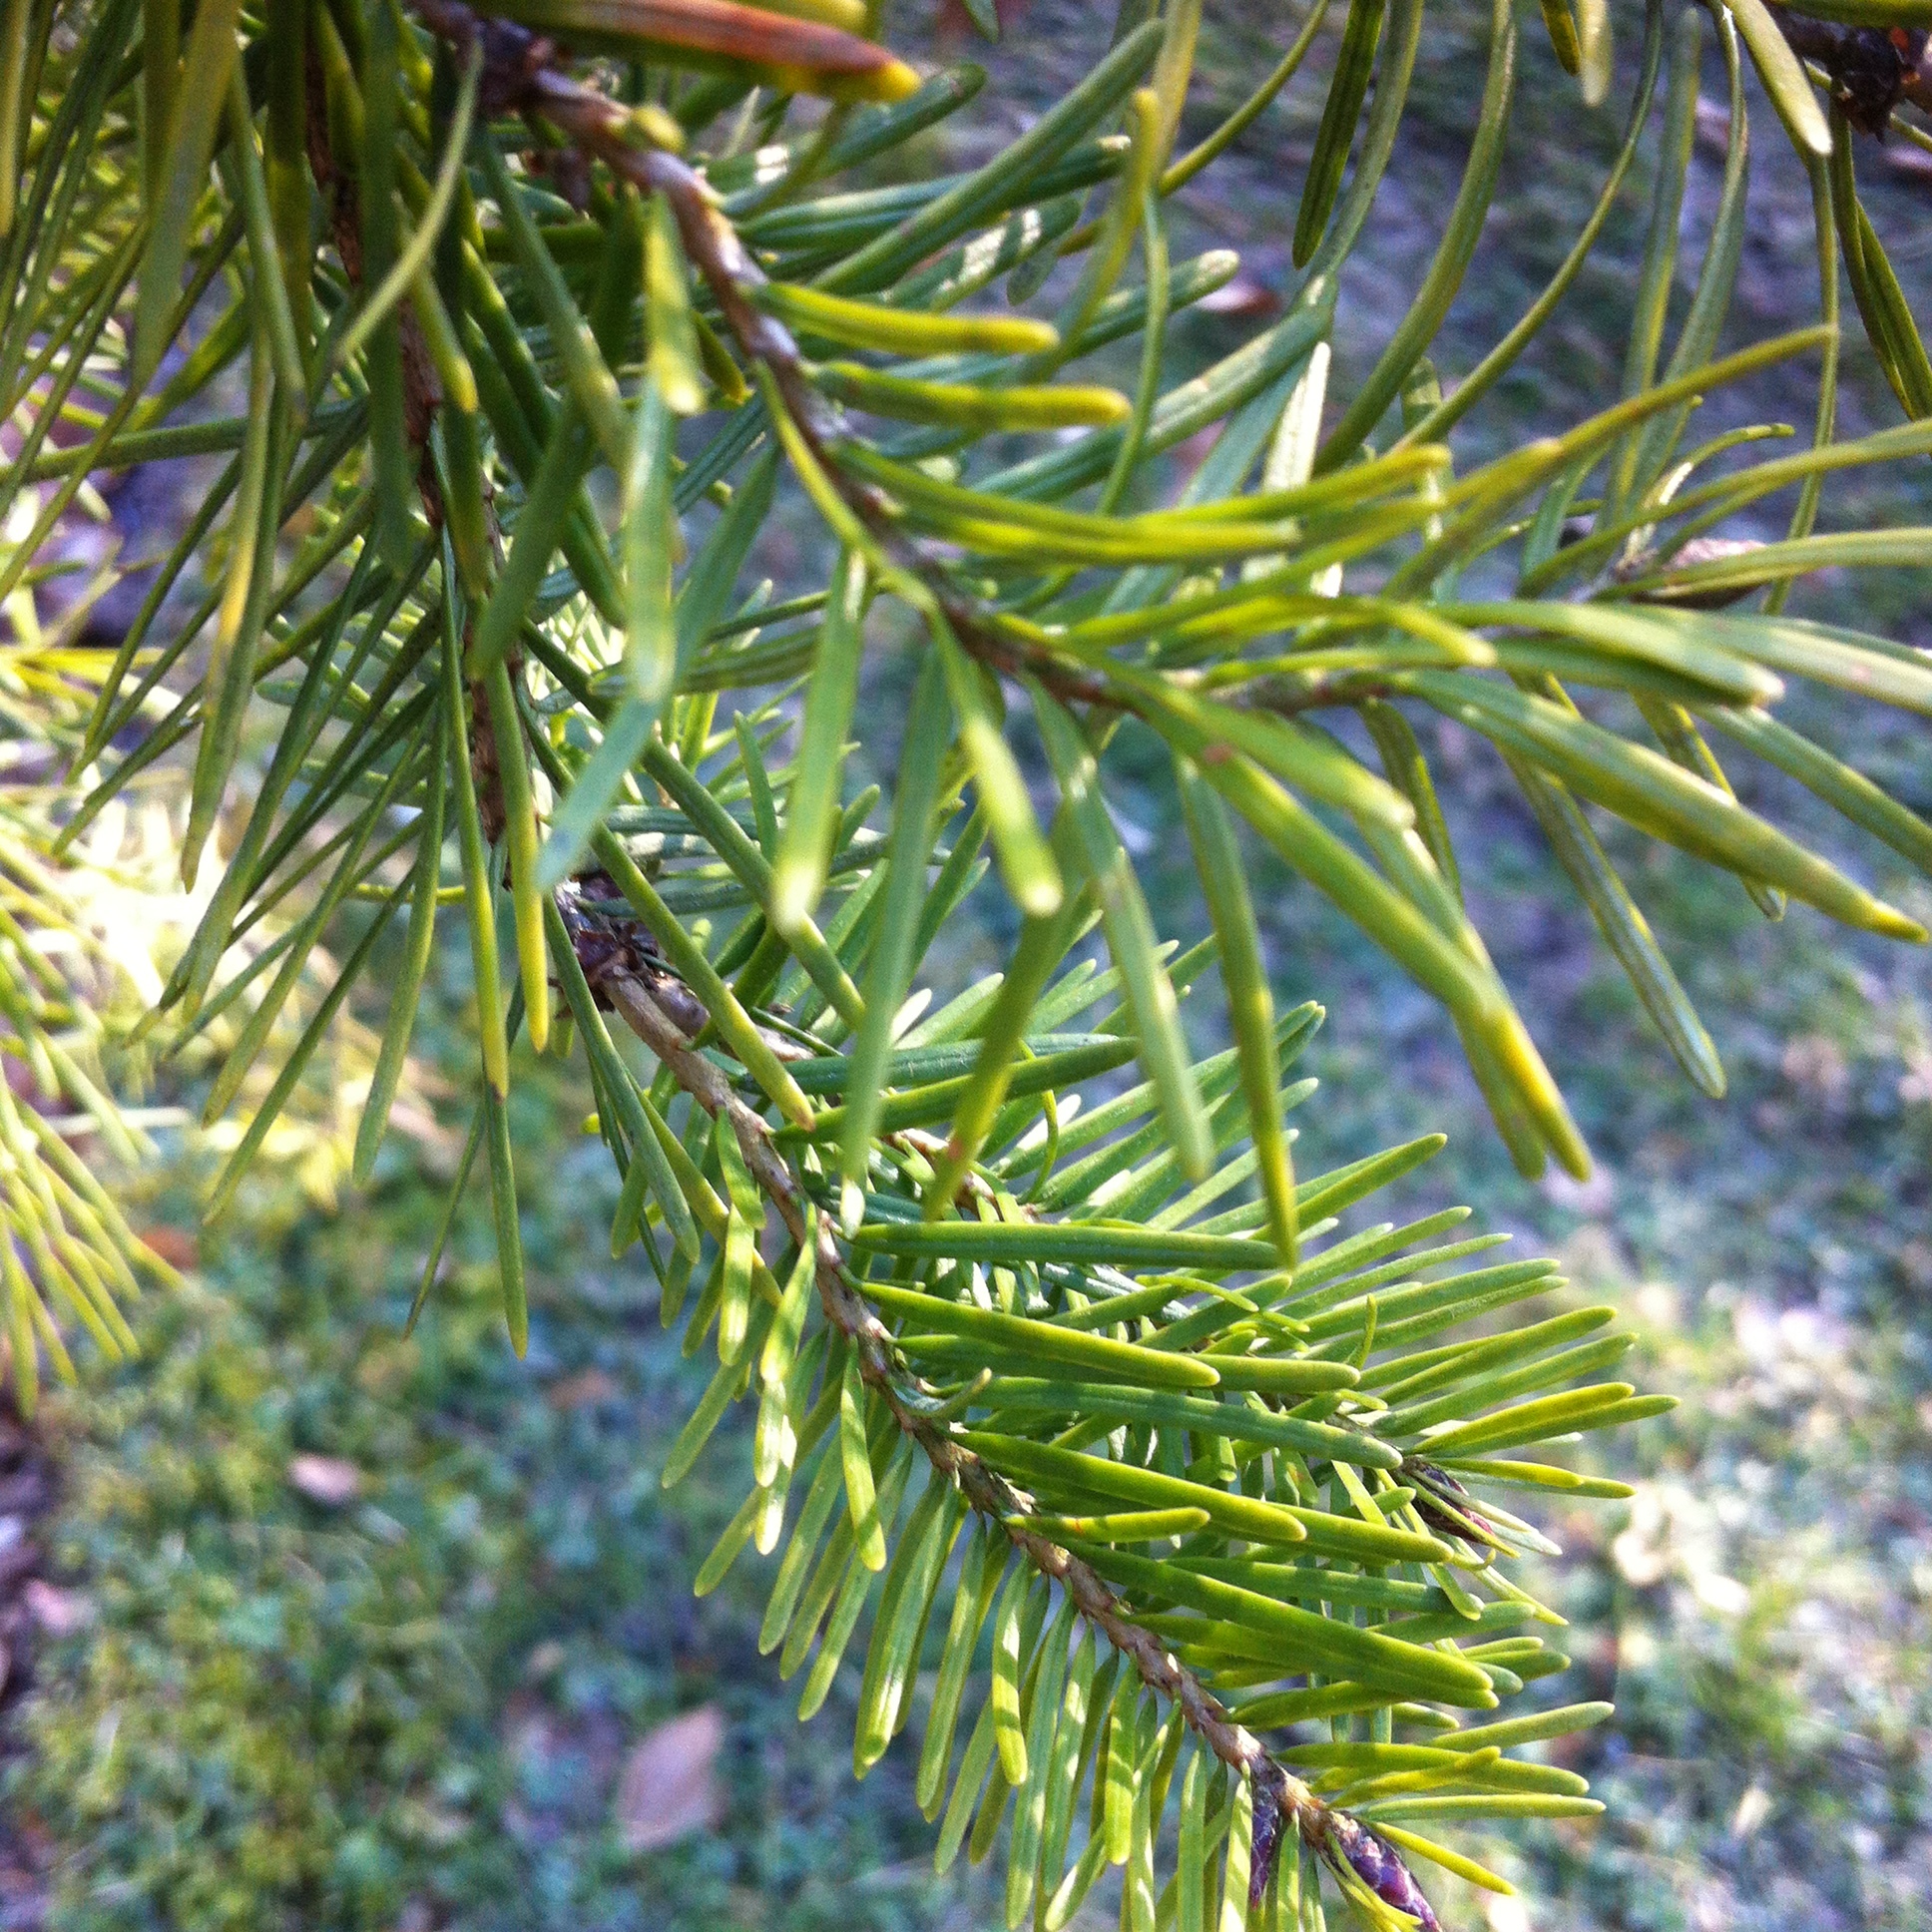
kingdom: Plantae
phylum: Tracheophyta
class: Pinopsida
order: Pinales
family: Pinaceae
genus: Pseudotsuga
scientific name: Pseudotsuga menziesii
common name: Douglas fir
